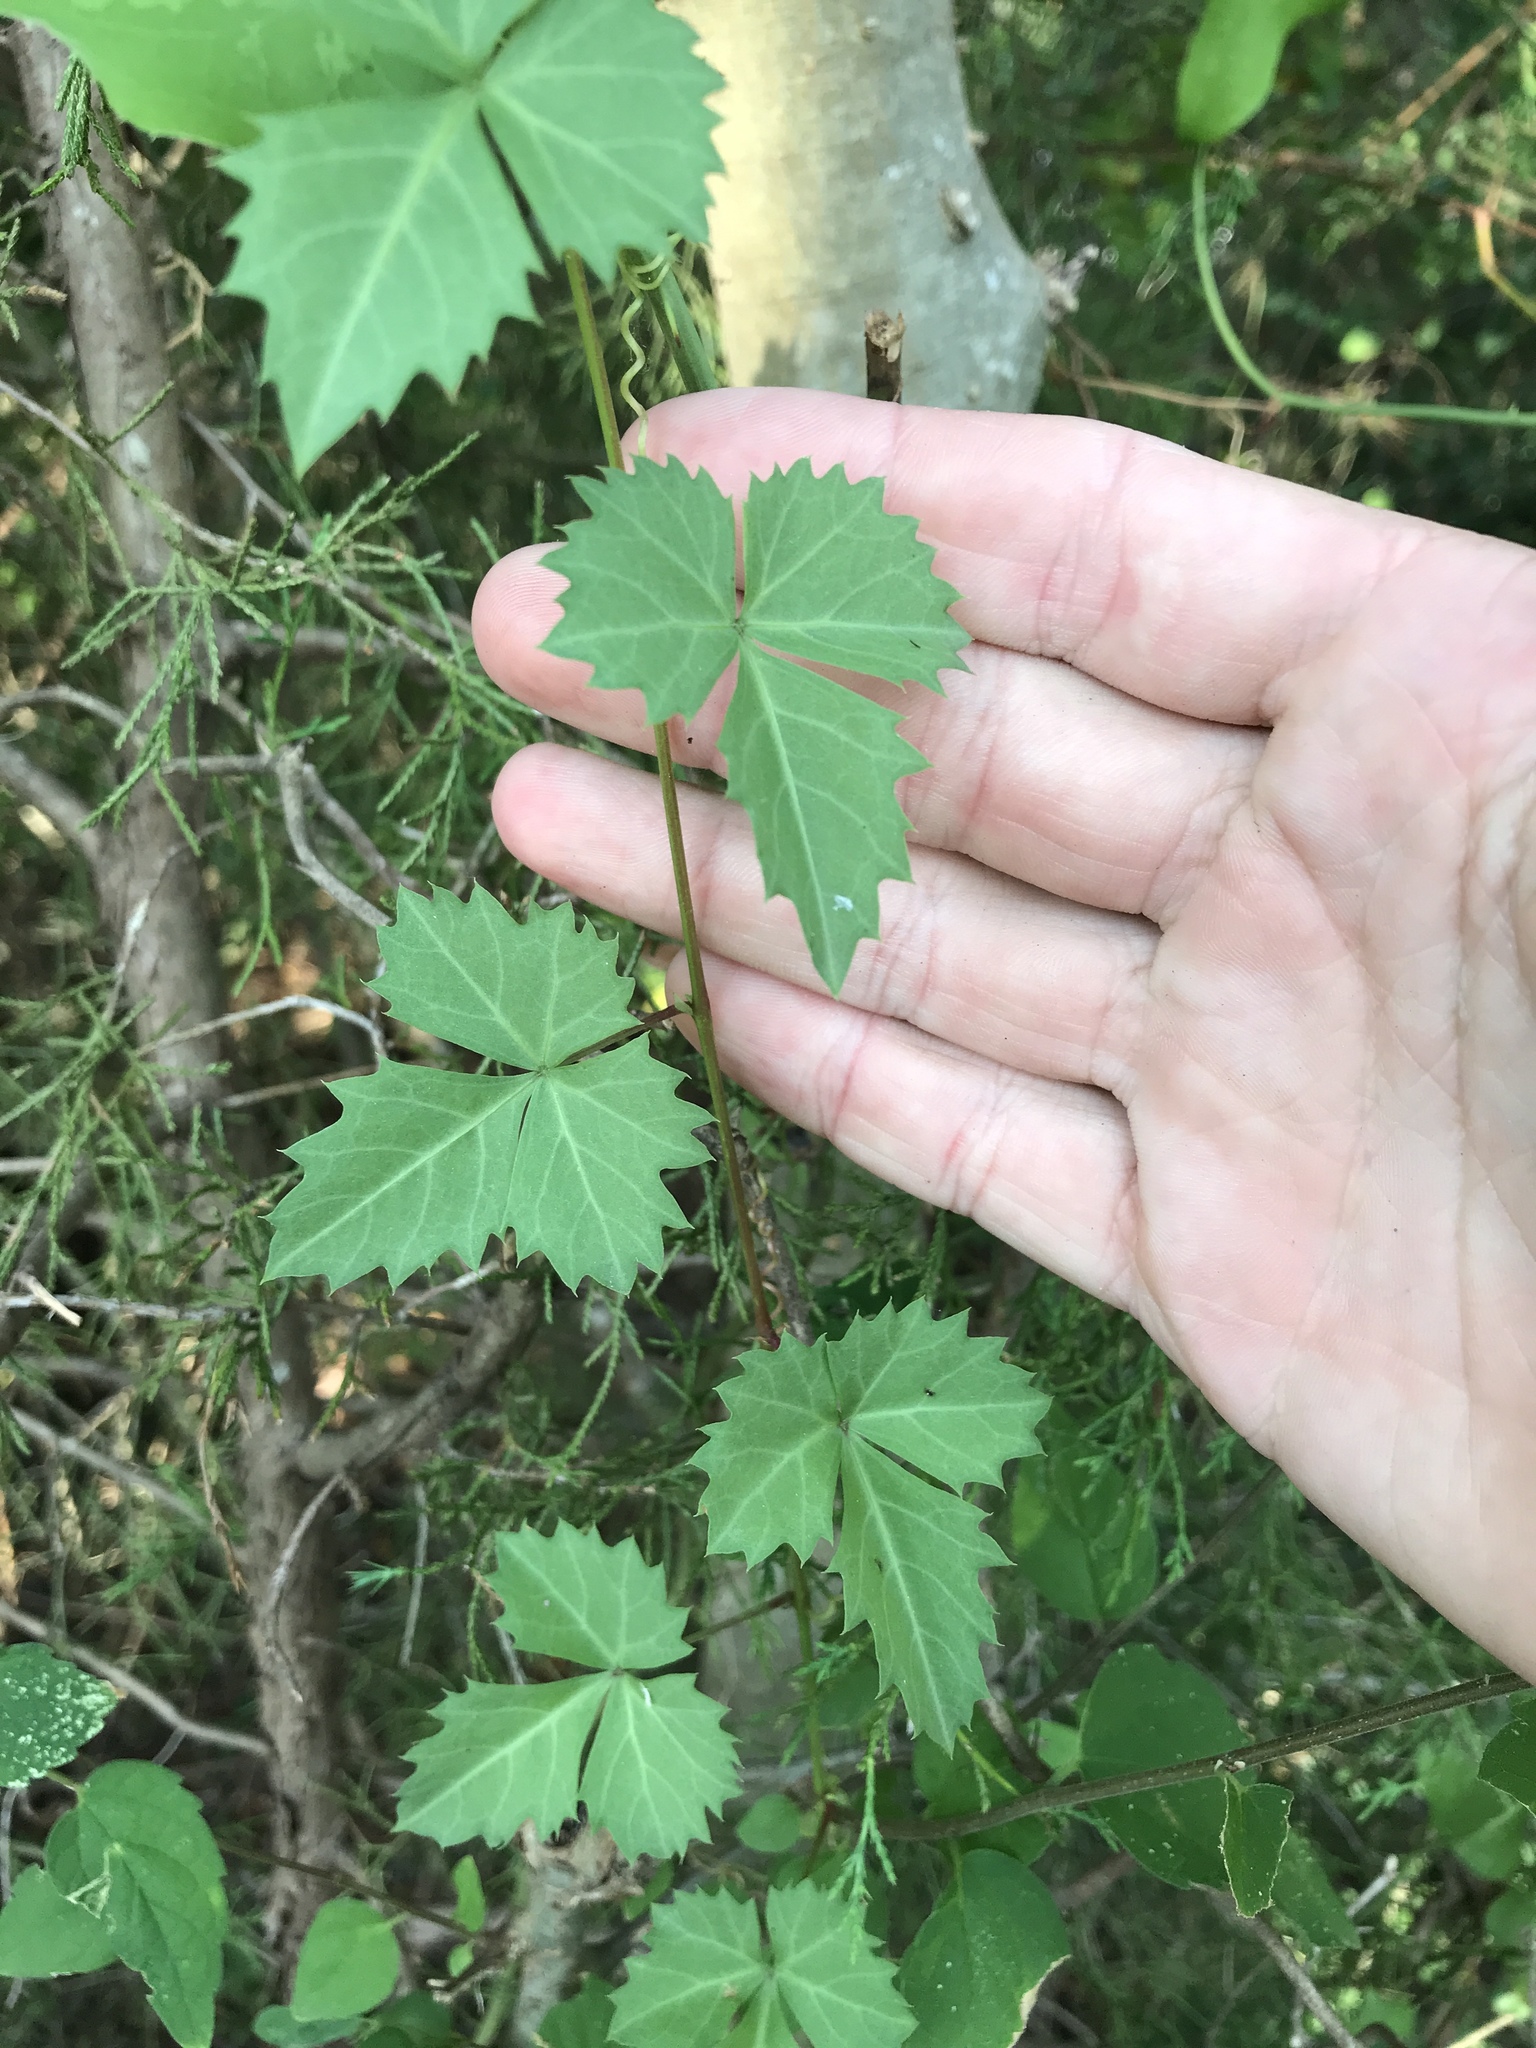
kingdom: Plantae
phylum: Tracheophyta
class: Magnoliopsida
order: Vitales
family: Vitaceae
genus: Cissus
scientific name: Cissus trifoliata
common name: Vine-sorrel
